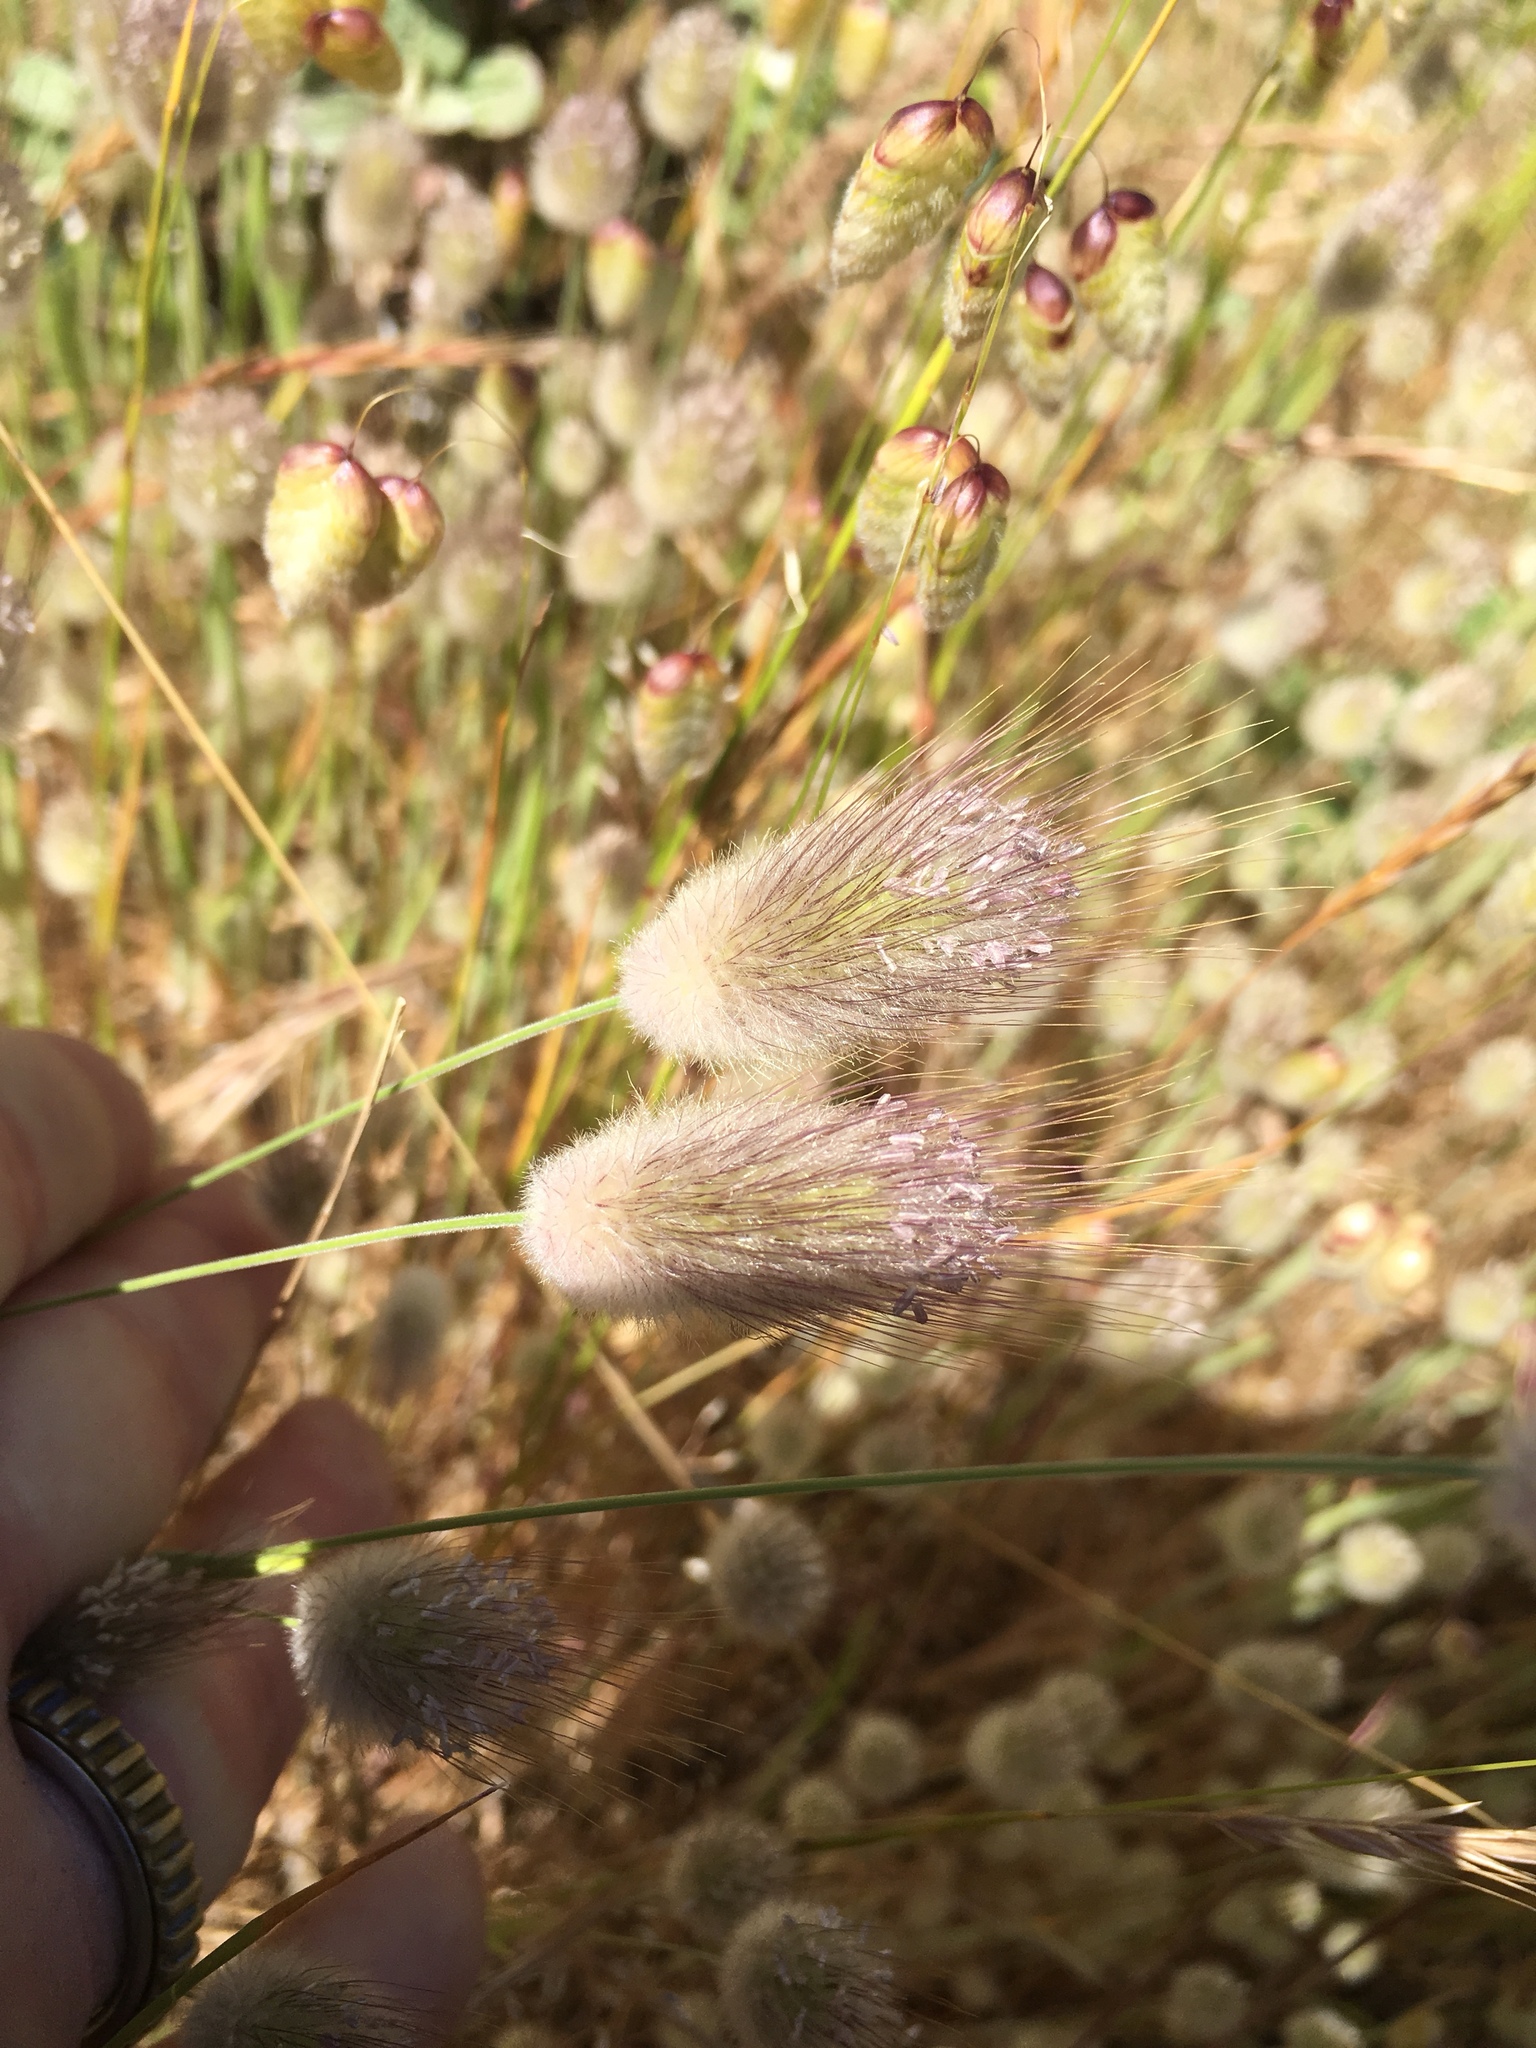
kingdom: Plantae
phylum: Tracheophyta
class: Liliopsida
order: Poales
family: Poaceae
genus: Lagurus
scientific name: Lagurus ovatus
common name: Hare's-tail
